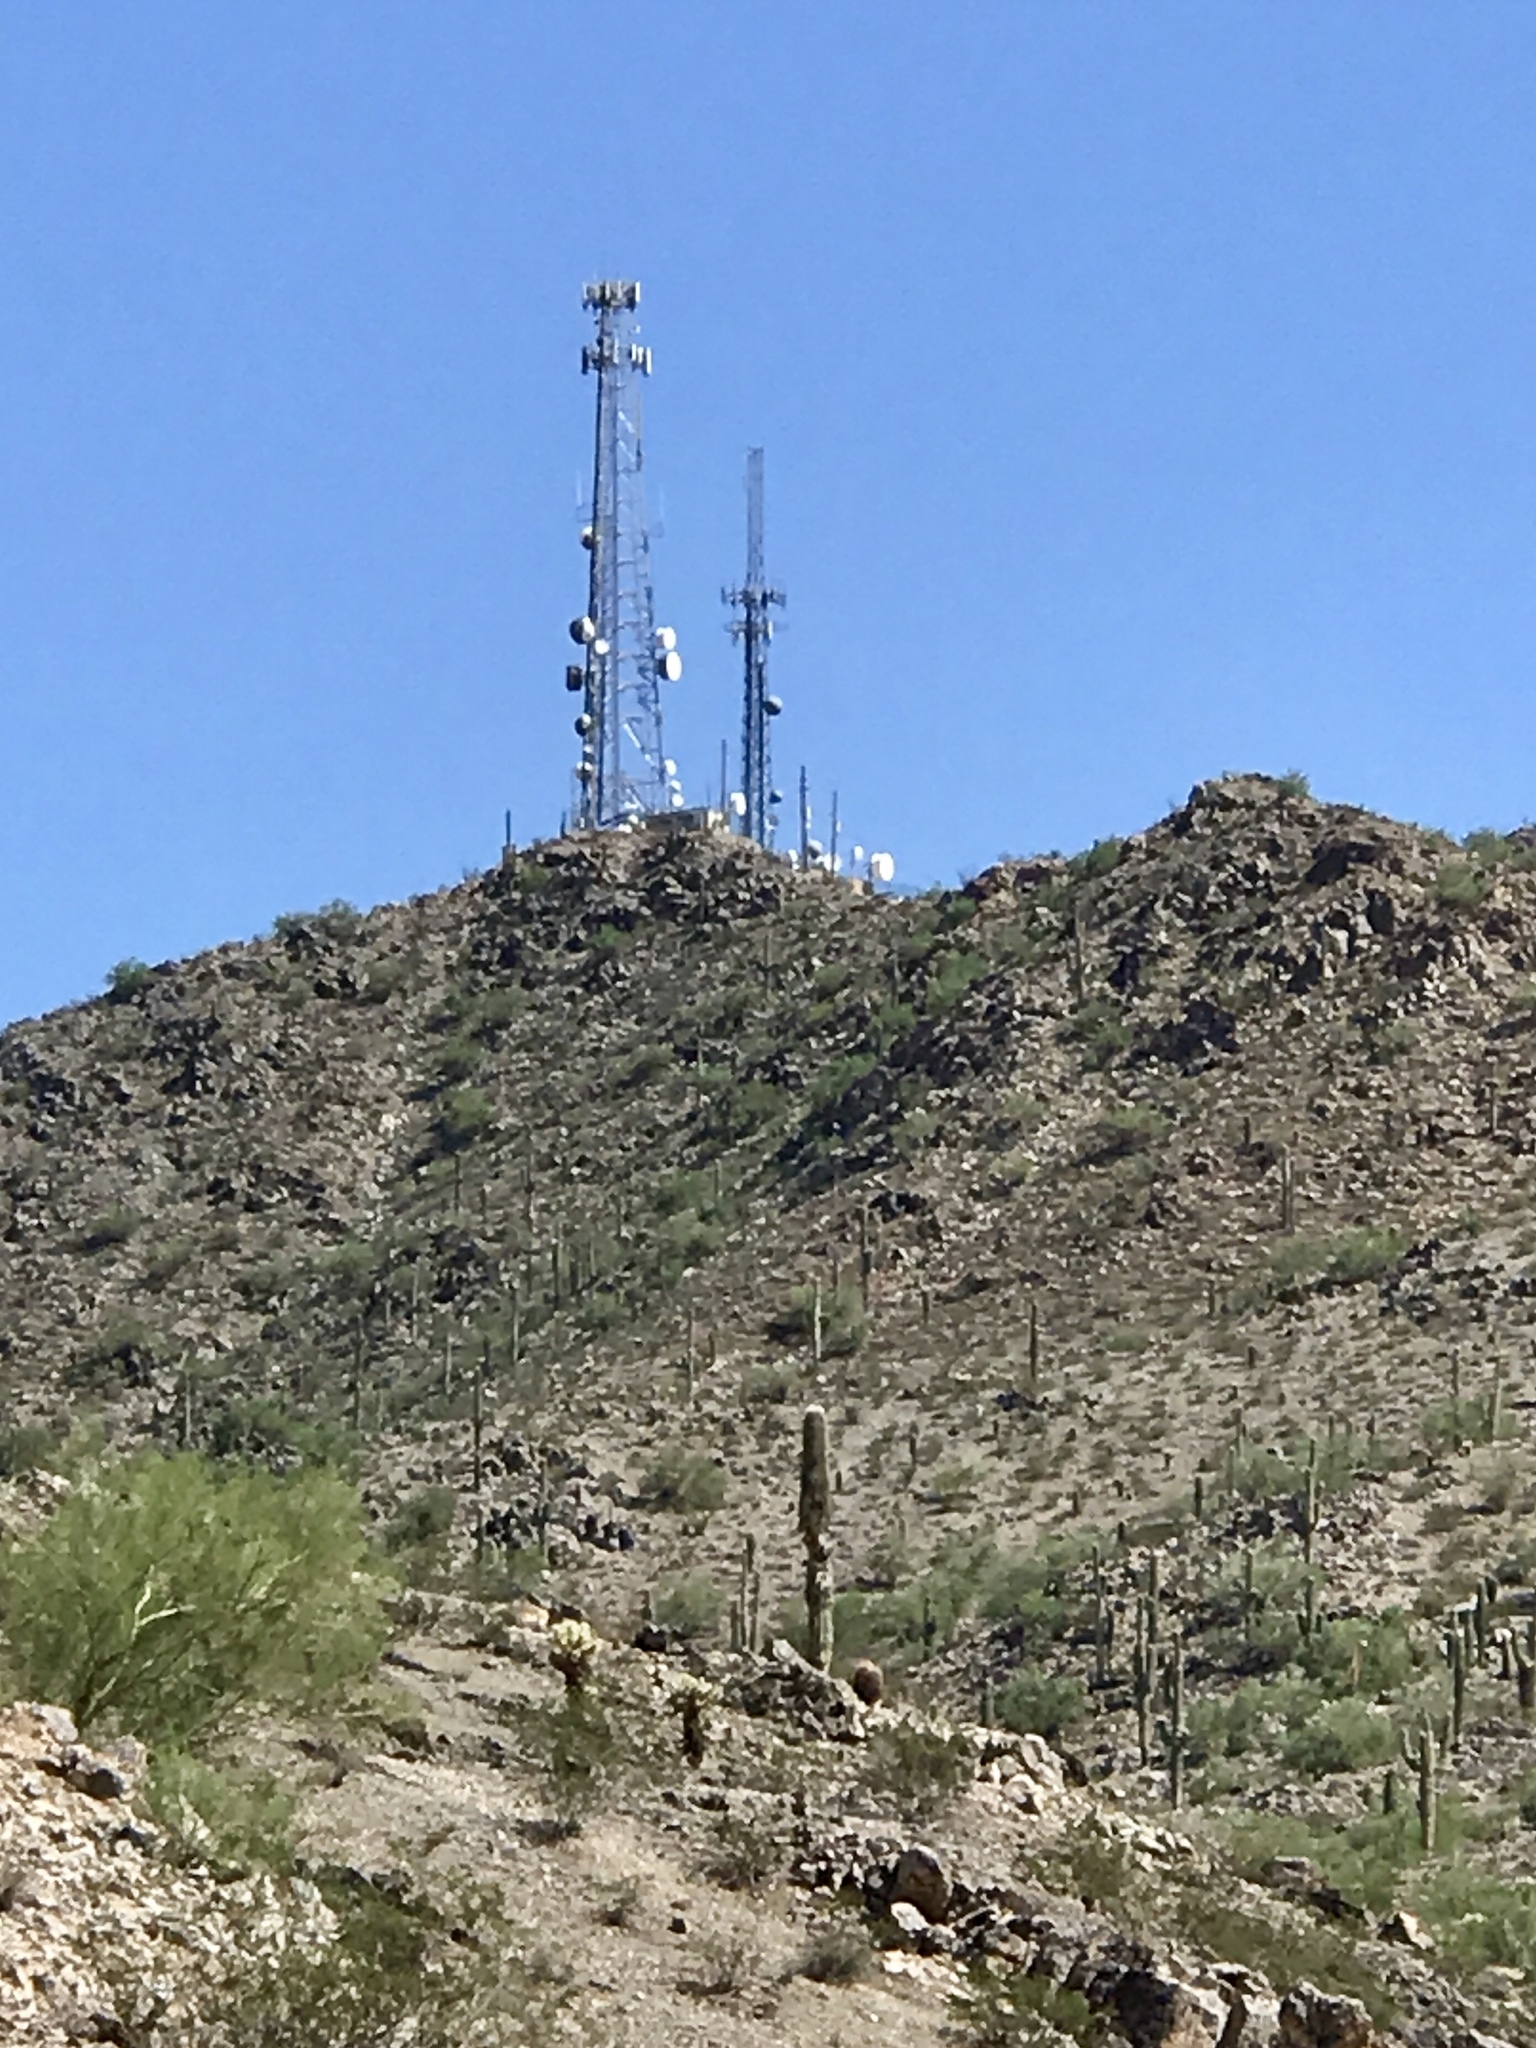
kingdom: Plantae
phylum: Tracheophyta
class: Magnoliopsida
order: Caryophyllales
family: Cactaceae
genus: Carnegiea
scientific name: Carnegiea gigantea
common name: Saguaro
